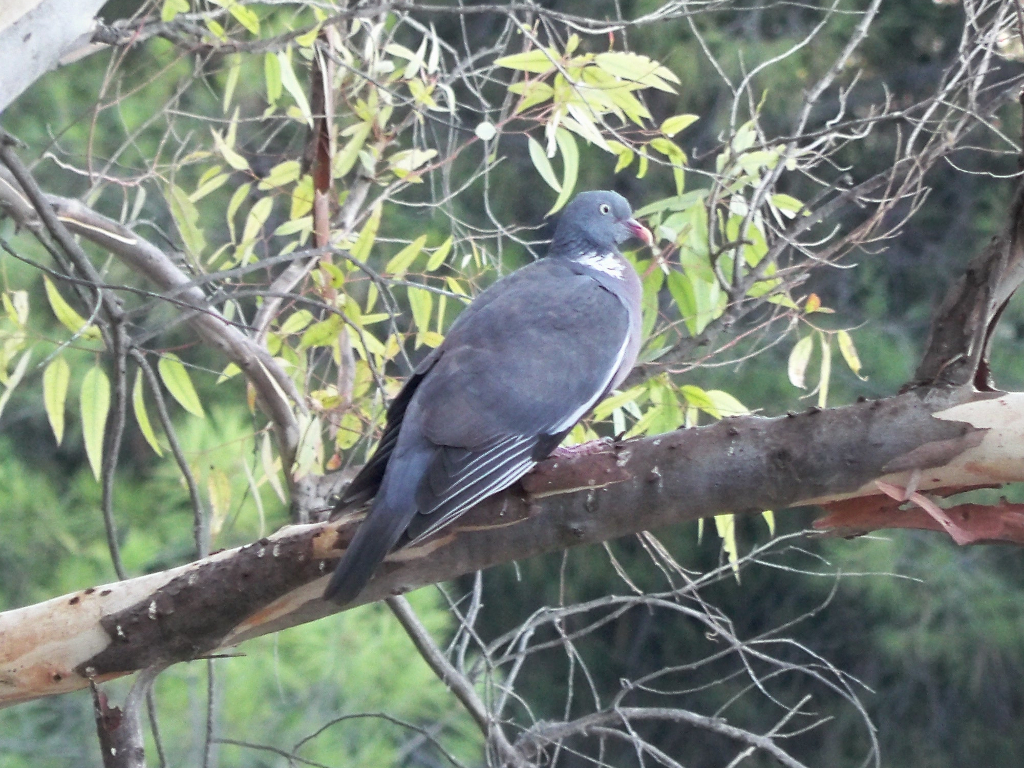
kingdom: Animalia
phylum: Chordata
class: Aves
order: Columbiformes
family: Columbidae
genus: Columba
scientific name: Columba palumbus
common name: Common wood pigeon
